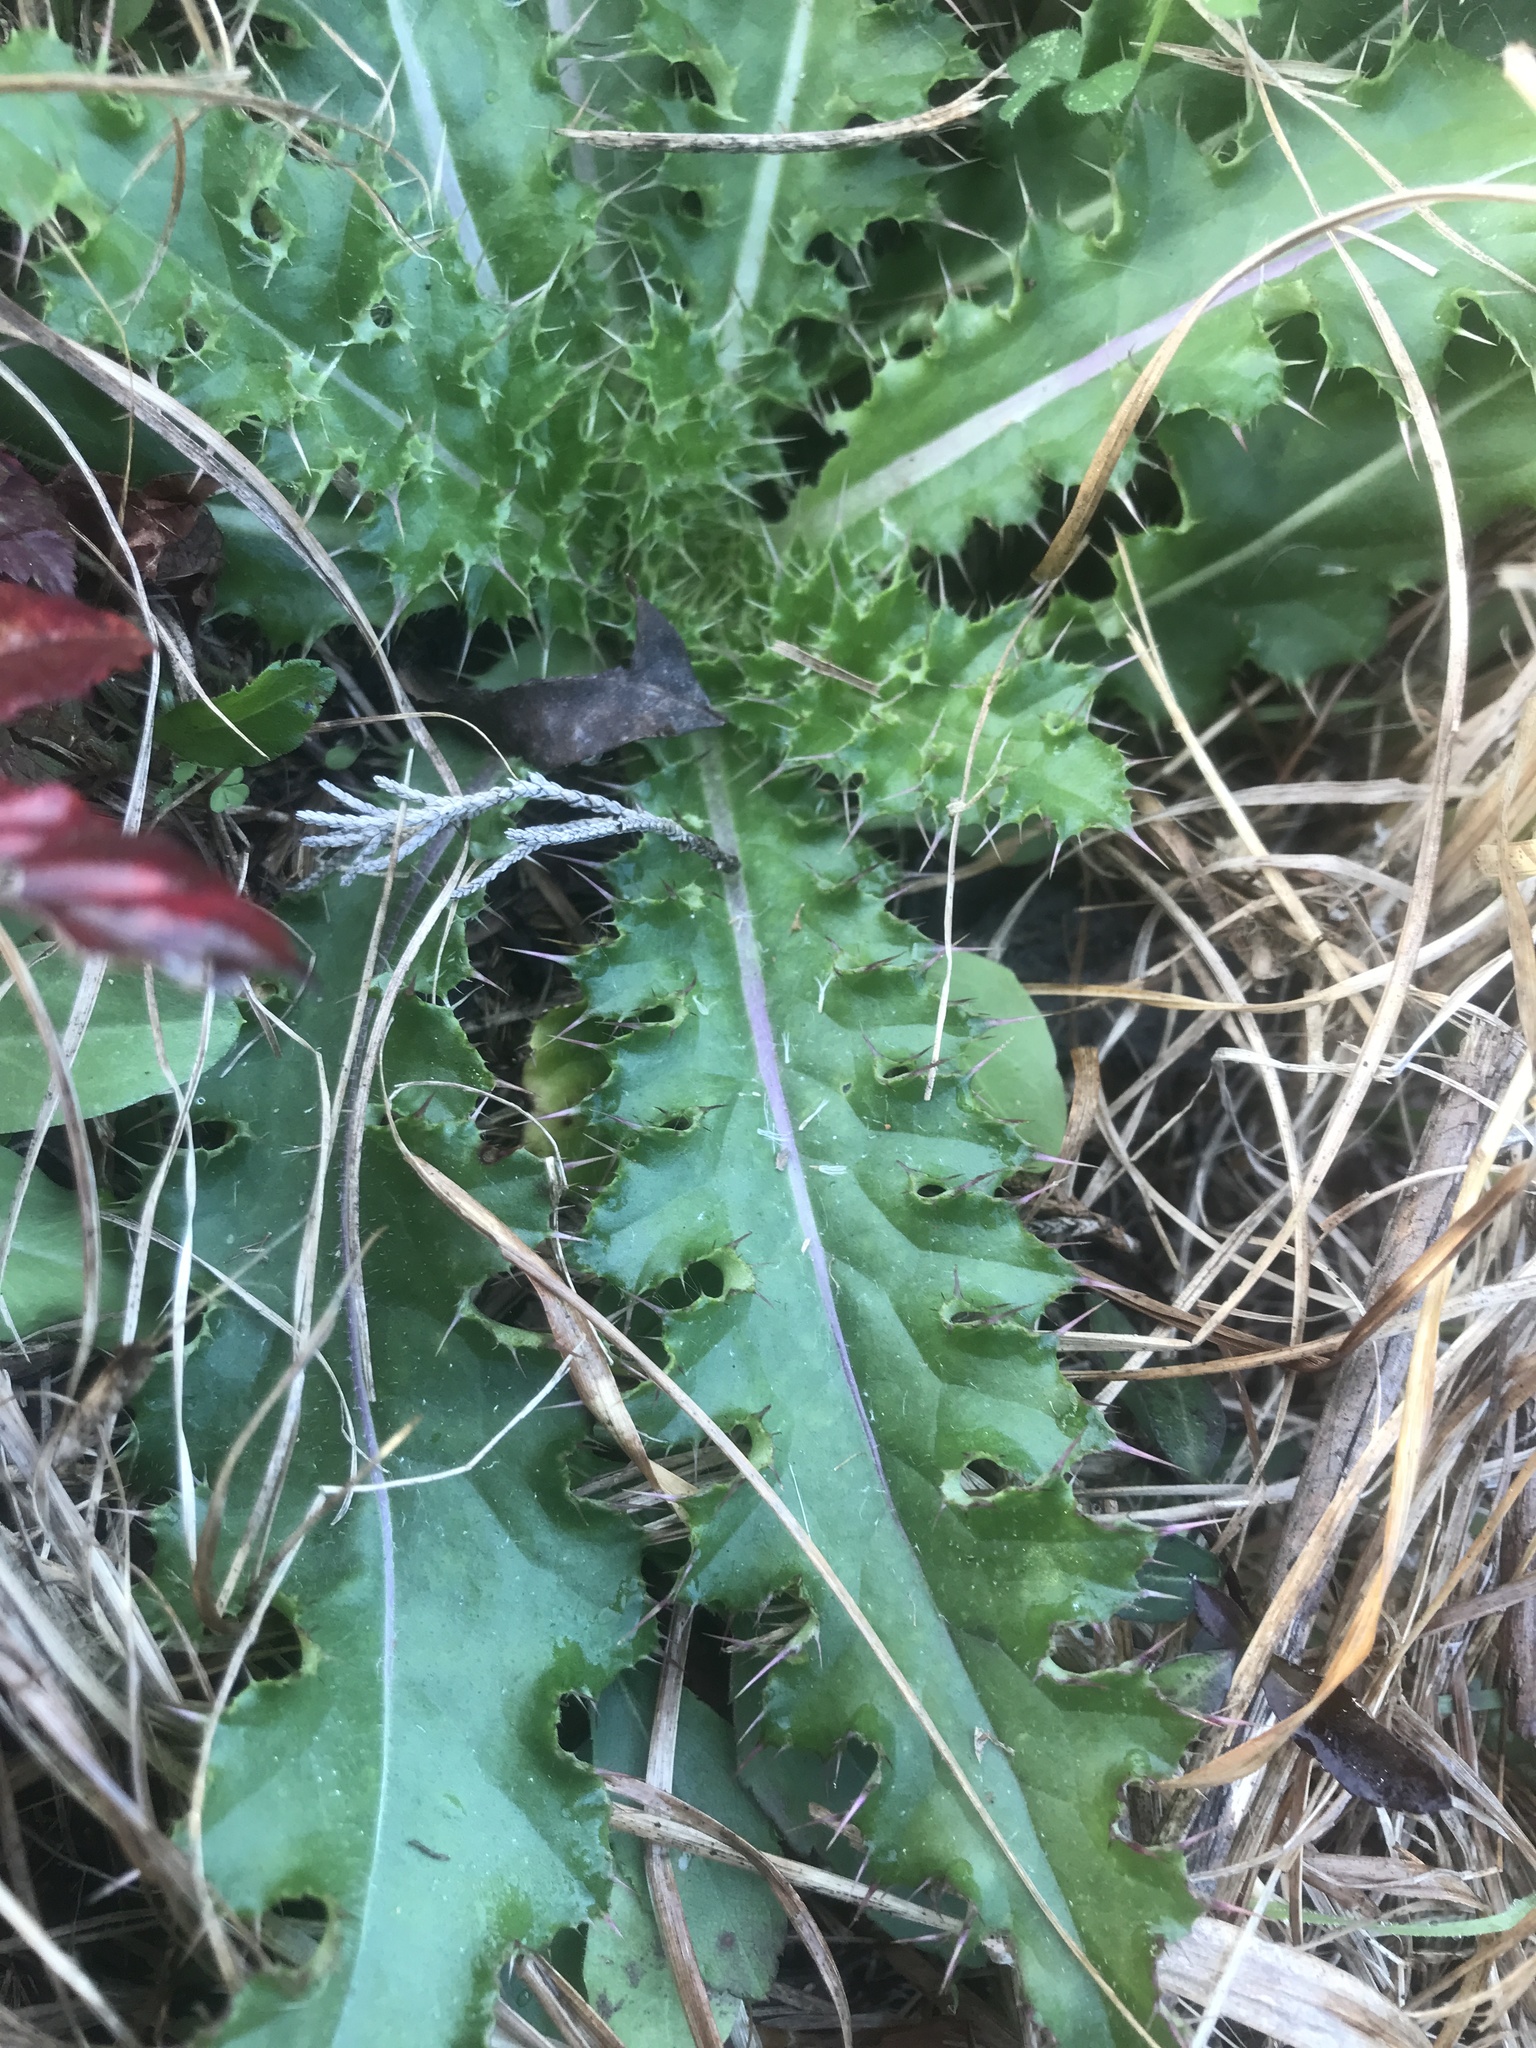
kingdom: Plantae
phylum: Tracheophyta
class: Magnoliopsida
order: Asterales
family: Asteraceae
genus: Cirsium
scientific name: Cirsium horridulum
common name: Bristly thistle
